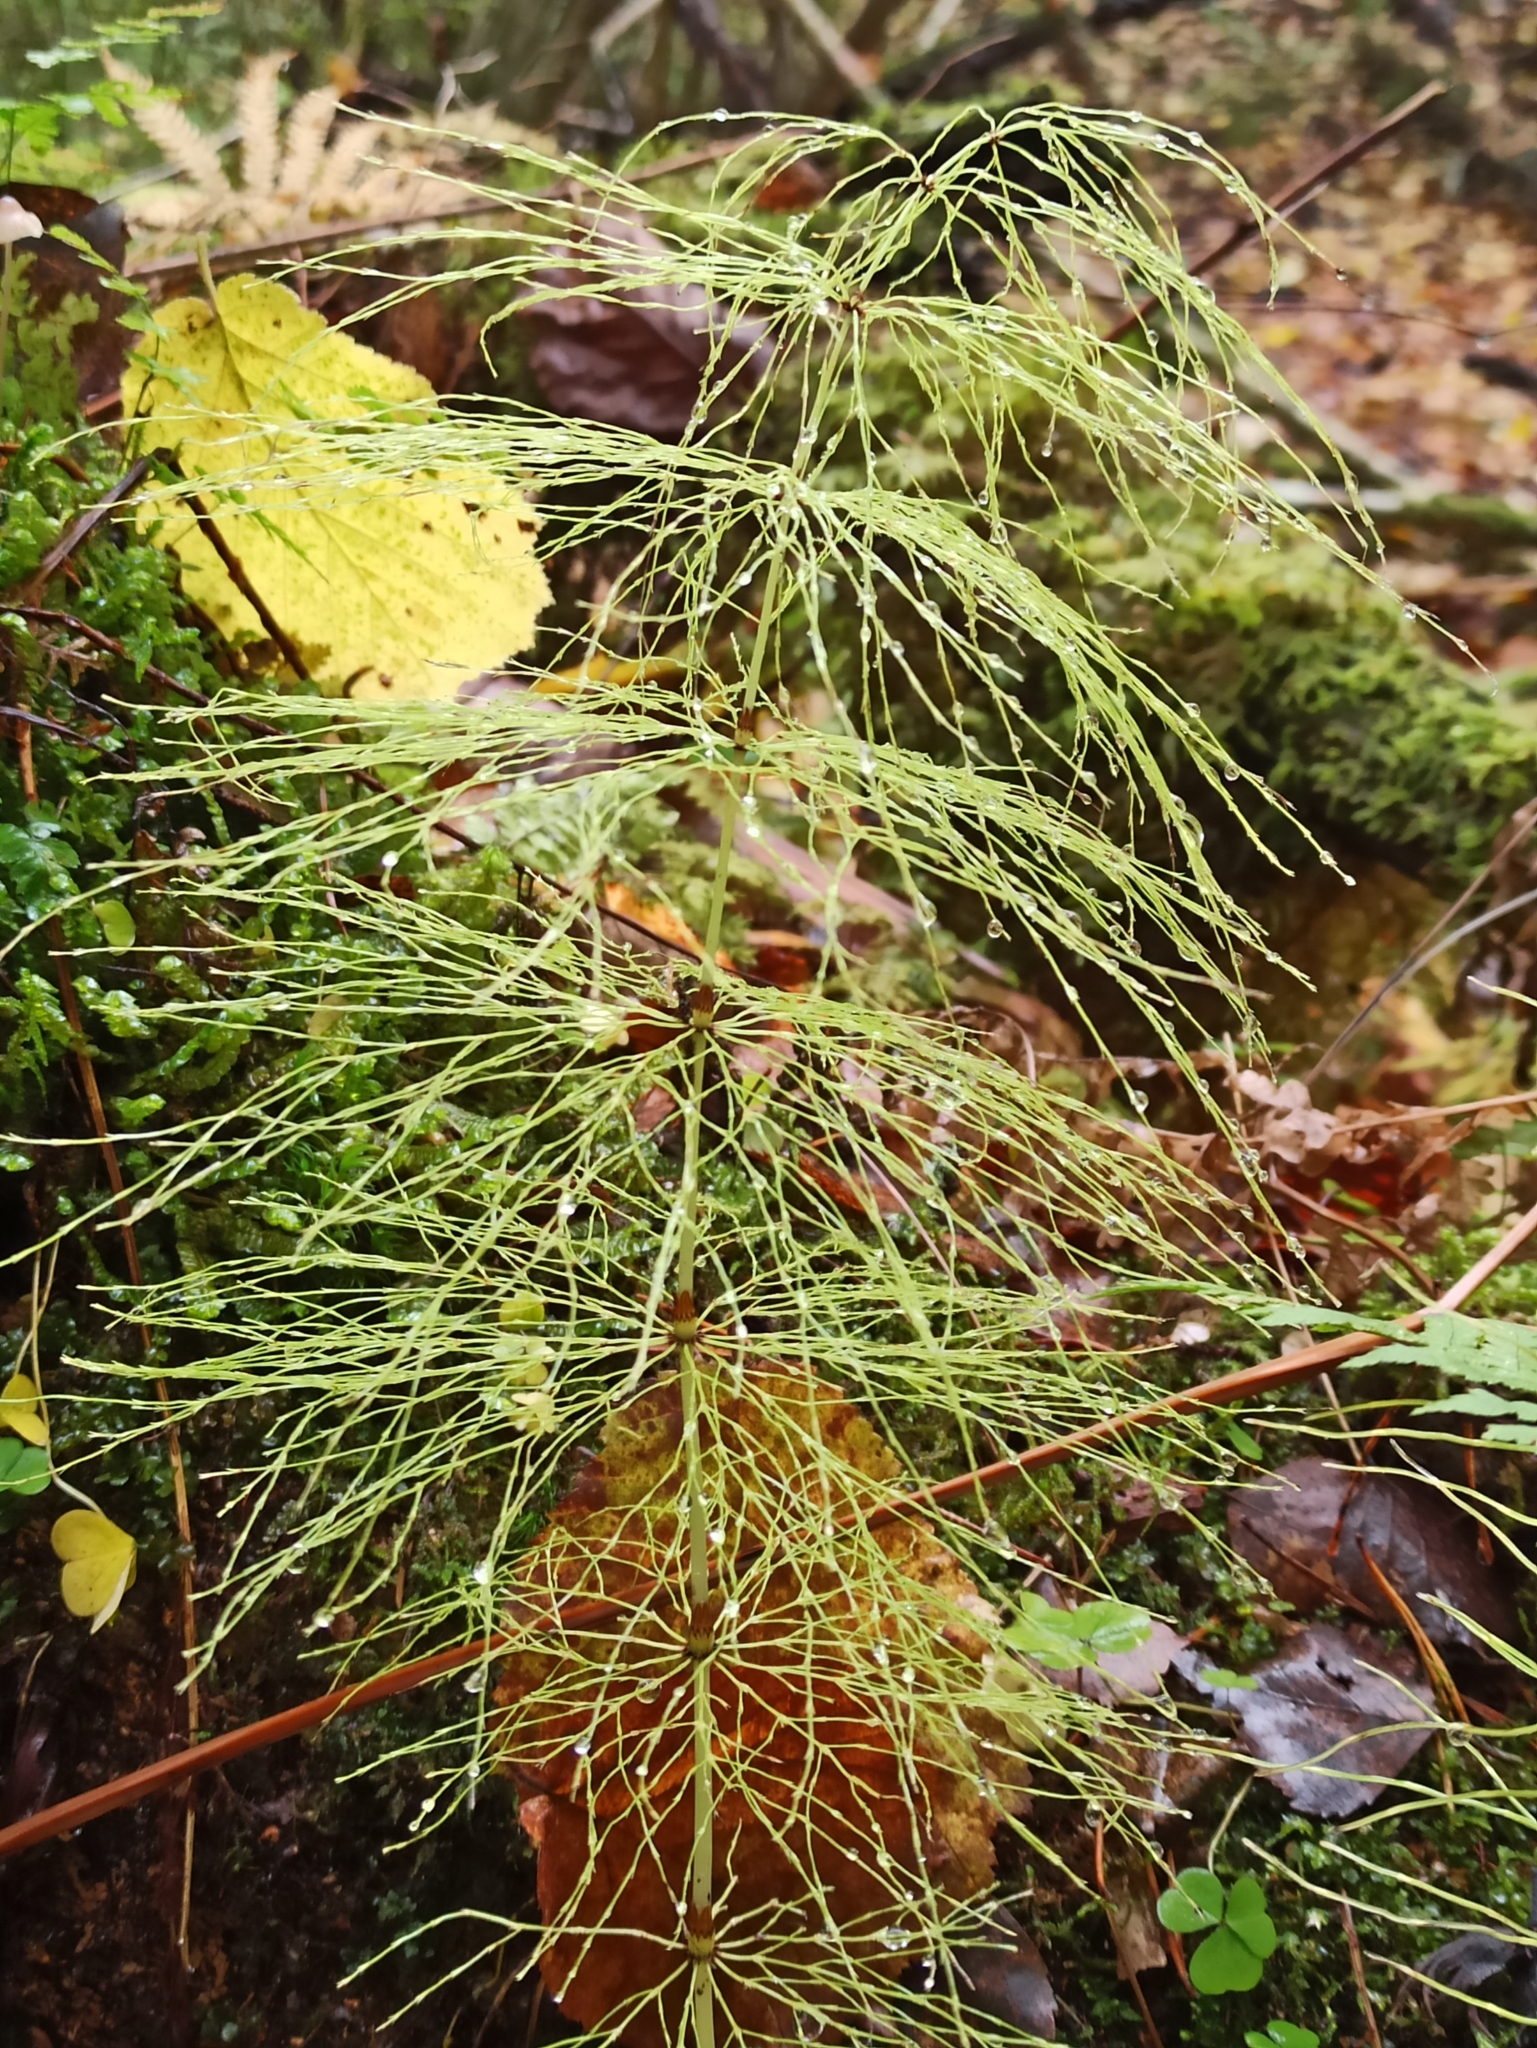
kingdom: Plantae
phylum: Tracheophyta
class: Polypodiopsida
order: Equisetales
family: Equisetaceae
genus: Equisetum
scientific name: Equisetum sylvaticum
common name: Wood horsetail
